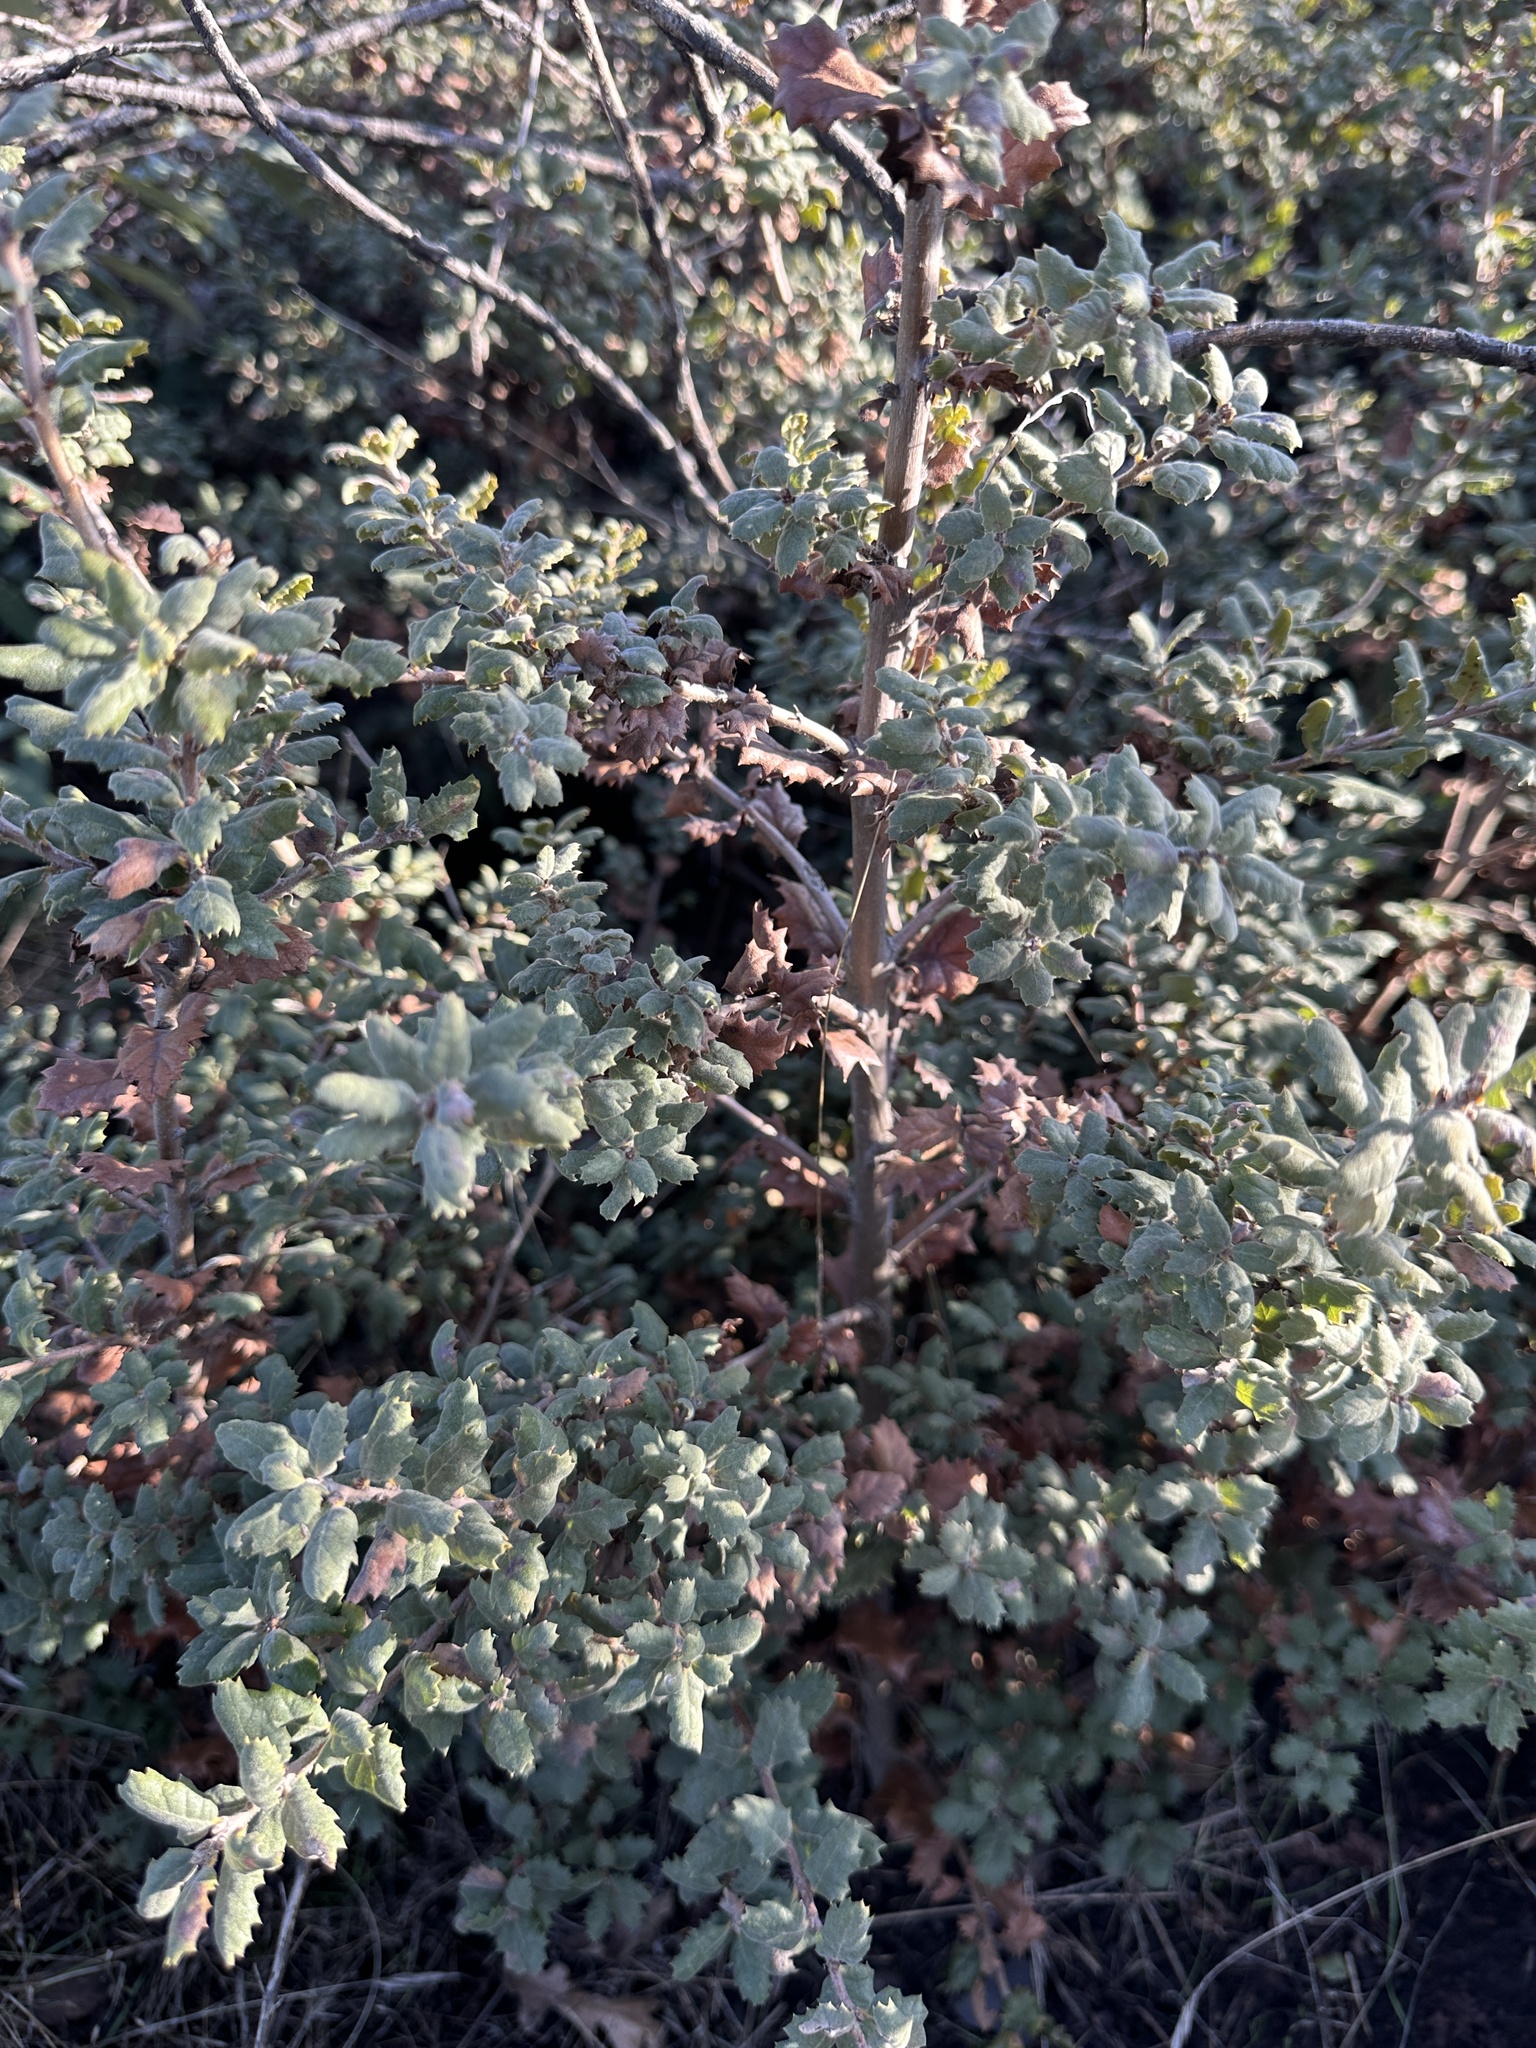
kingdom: Plantae
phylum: Tracheophyta
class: Magnoliopsida
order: Fagales
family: Fagaceae
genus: Quercus
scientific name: Quercus durata
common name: Leather oak
